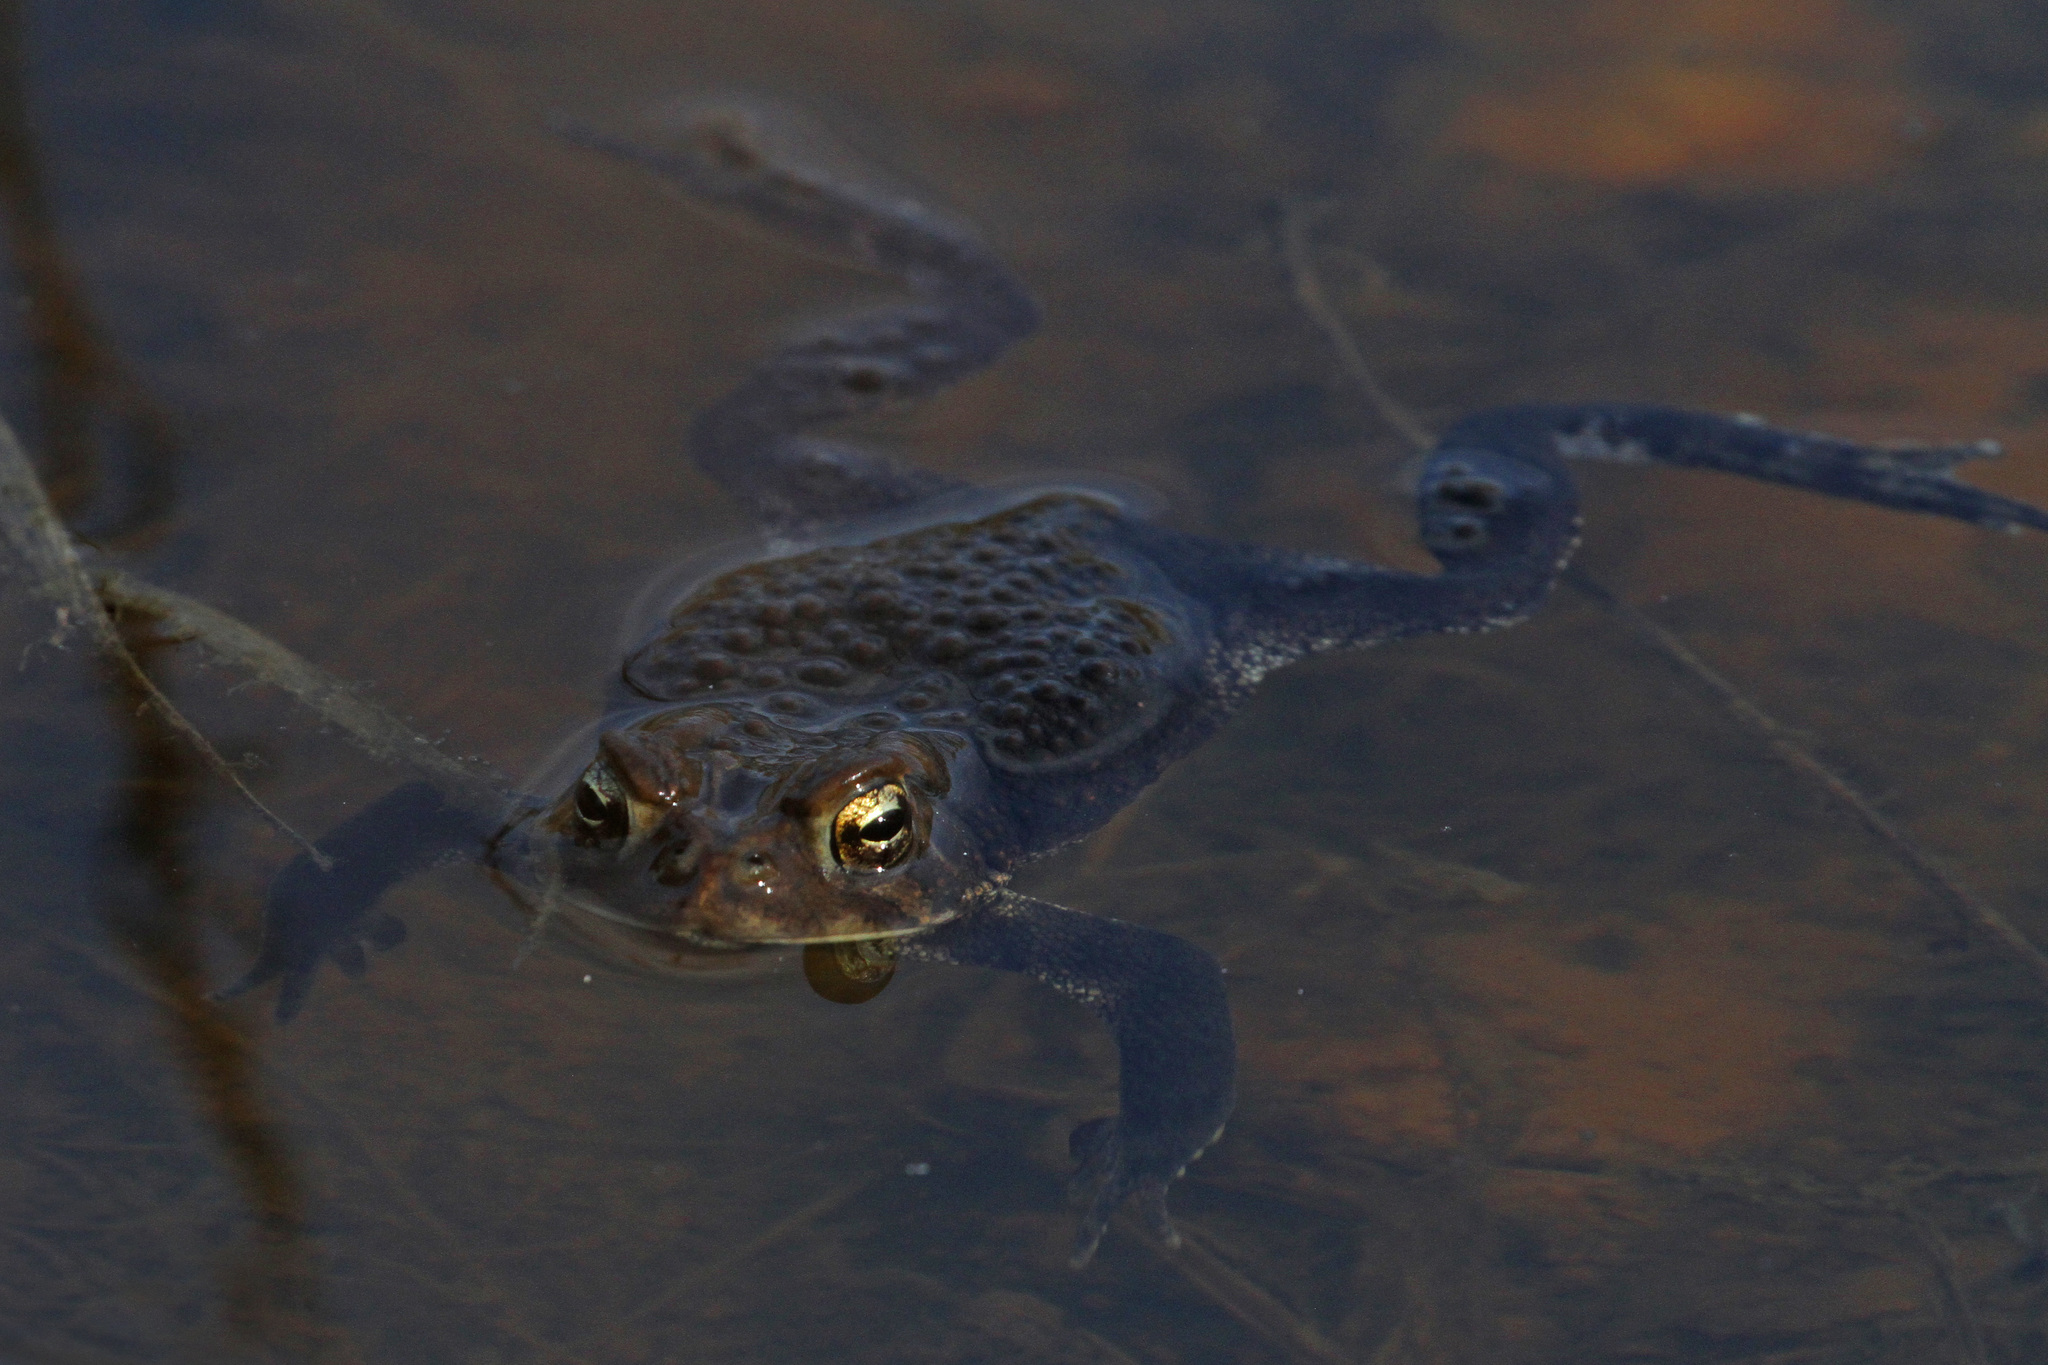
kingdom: Animalia
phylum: Chordata
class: Amphibia
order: Anura
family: Bufonidae
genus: Anaxyrus
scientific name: Anaxyrus americanus
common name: American toad
